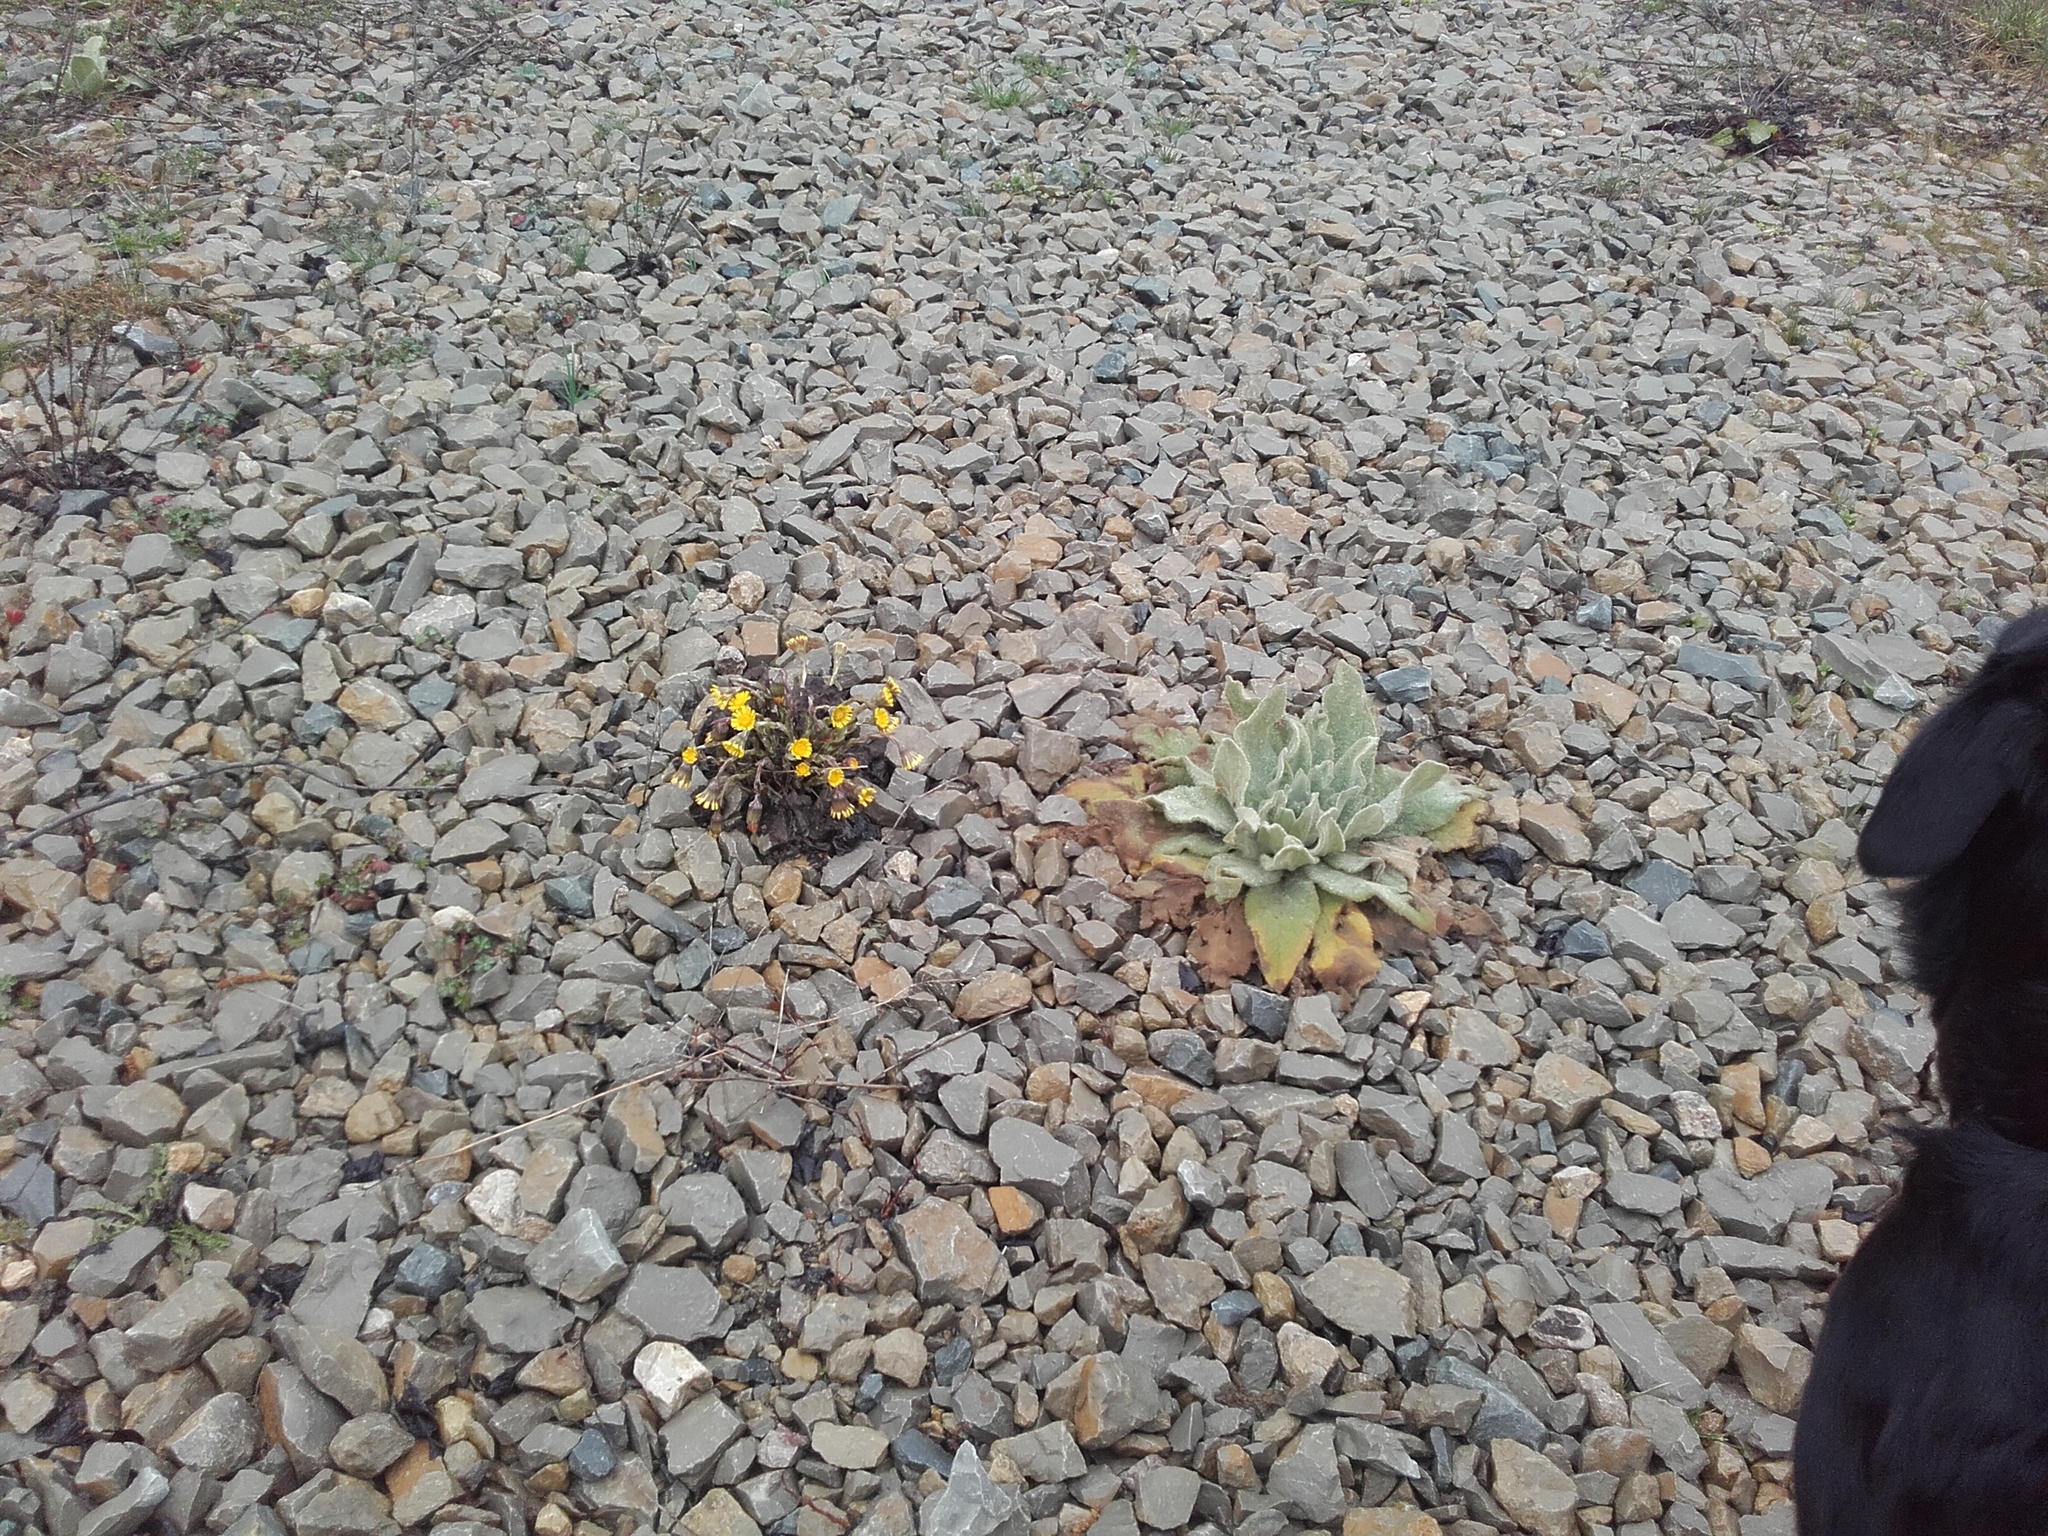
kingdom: Plantae
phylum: Tracheophyta
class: Magnoliopsida
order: Asterales
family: Asteraceae
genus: Tussilago
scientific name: Tussilago farfara
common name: Coltsfoot
